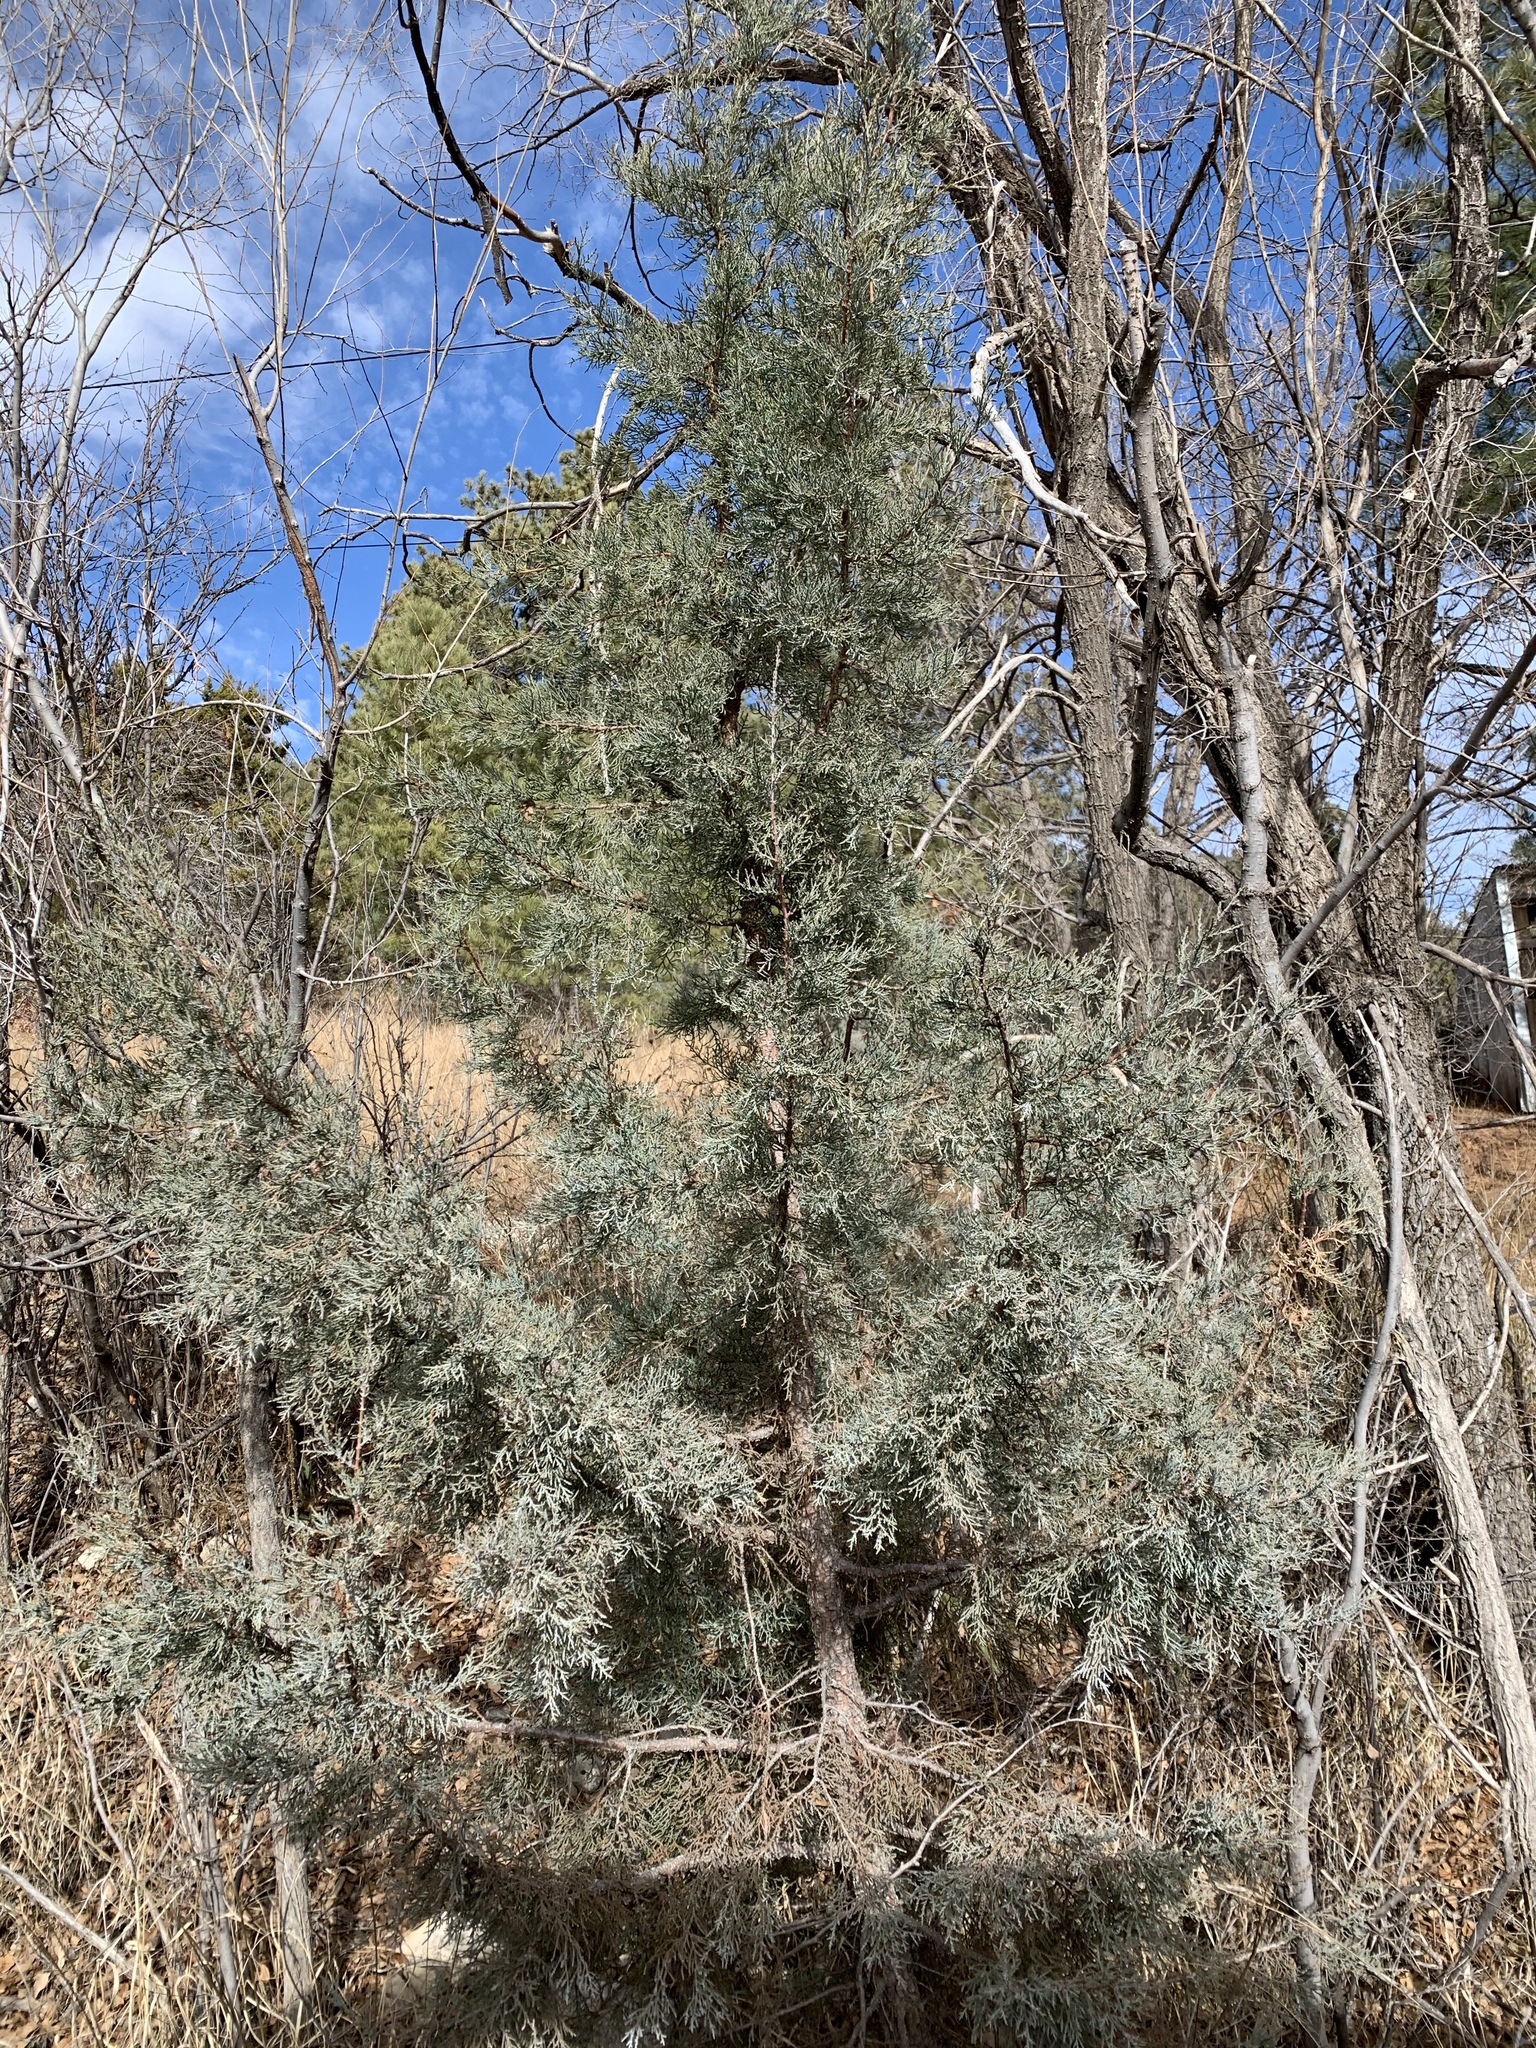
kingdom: Plantae
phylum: Tracheophyta
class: Pinopsida
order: Pinales
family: Cupressaceae
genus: Juniperus
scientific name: Juniperus deppeana
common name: Alligator juniper
